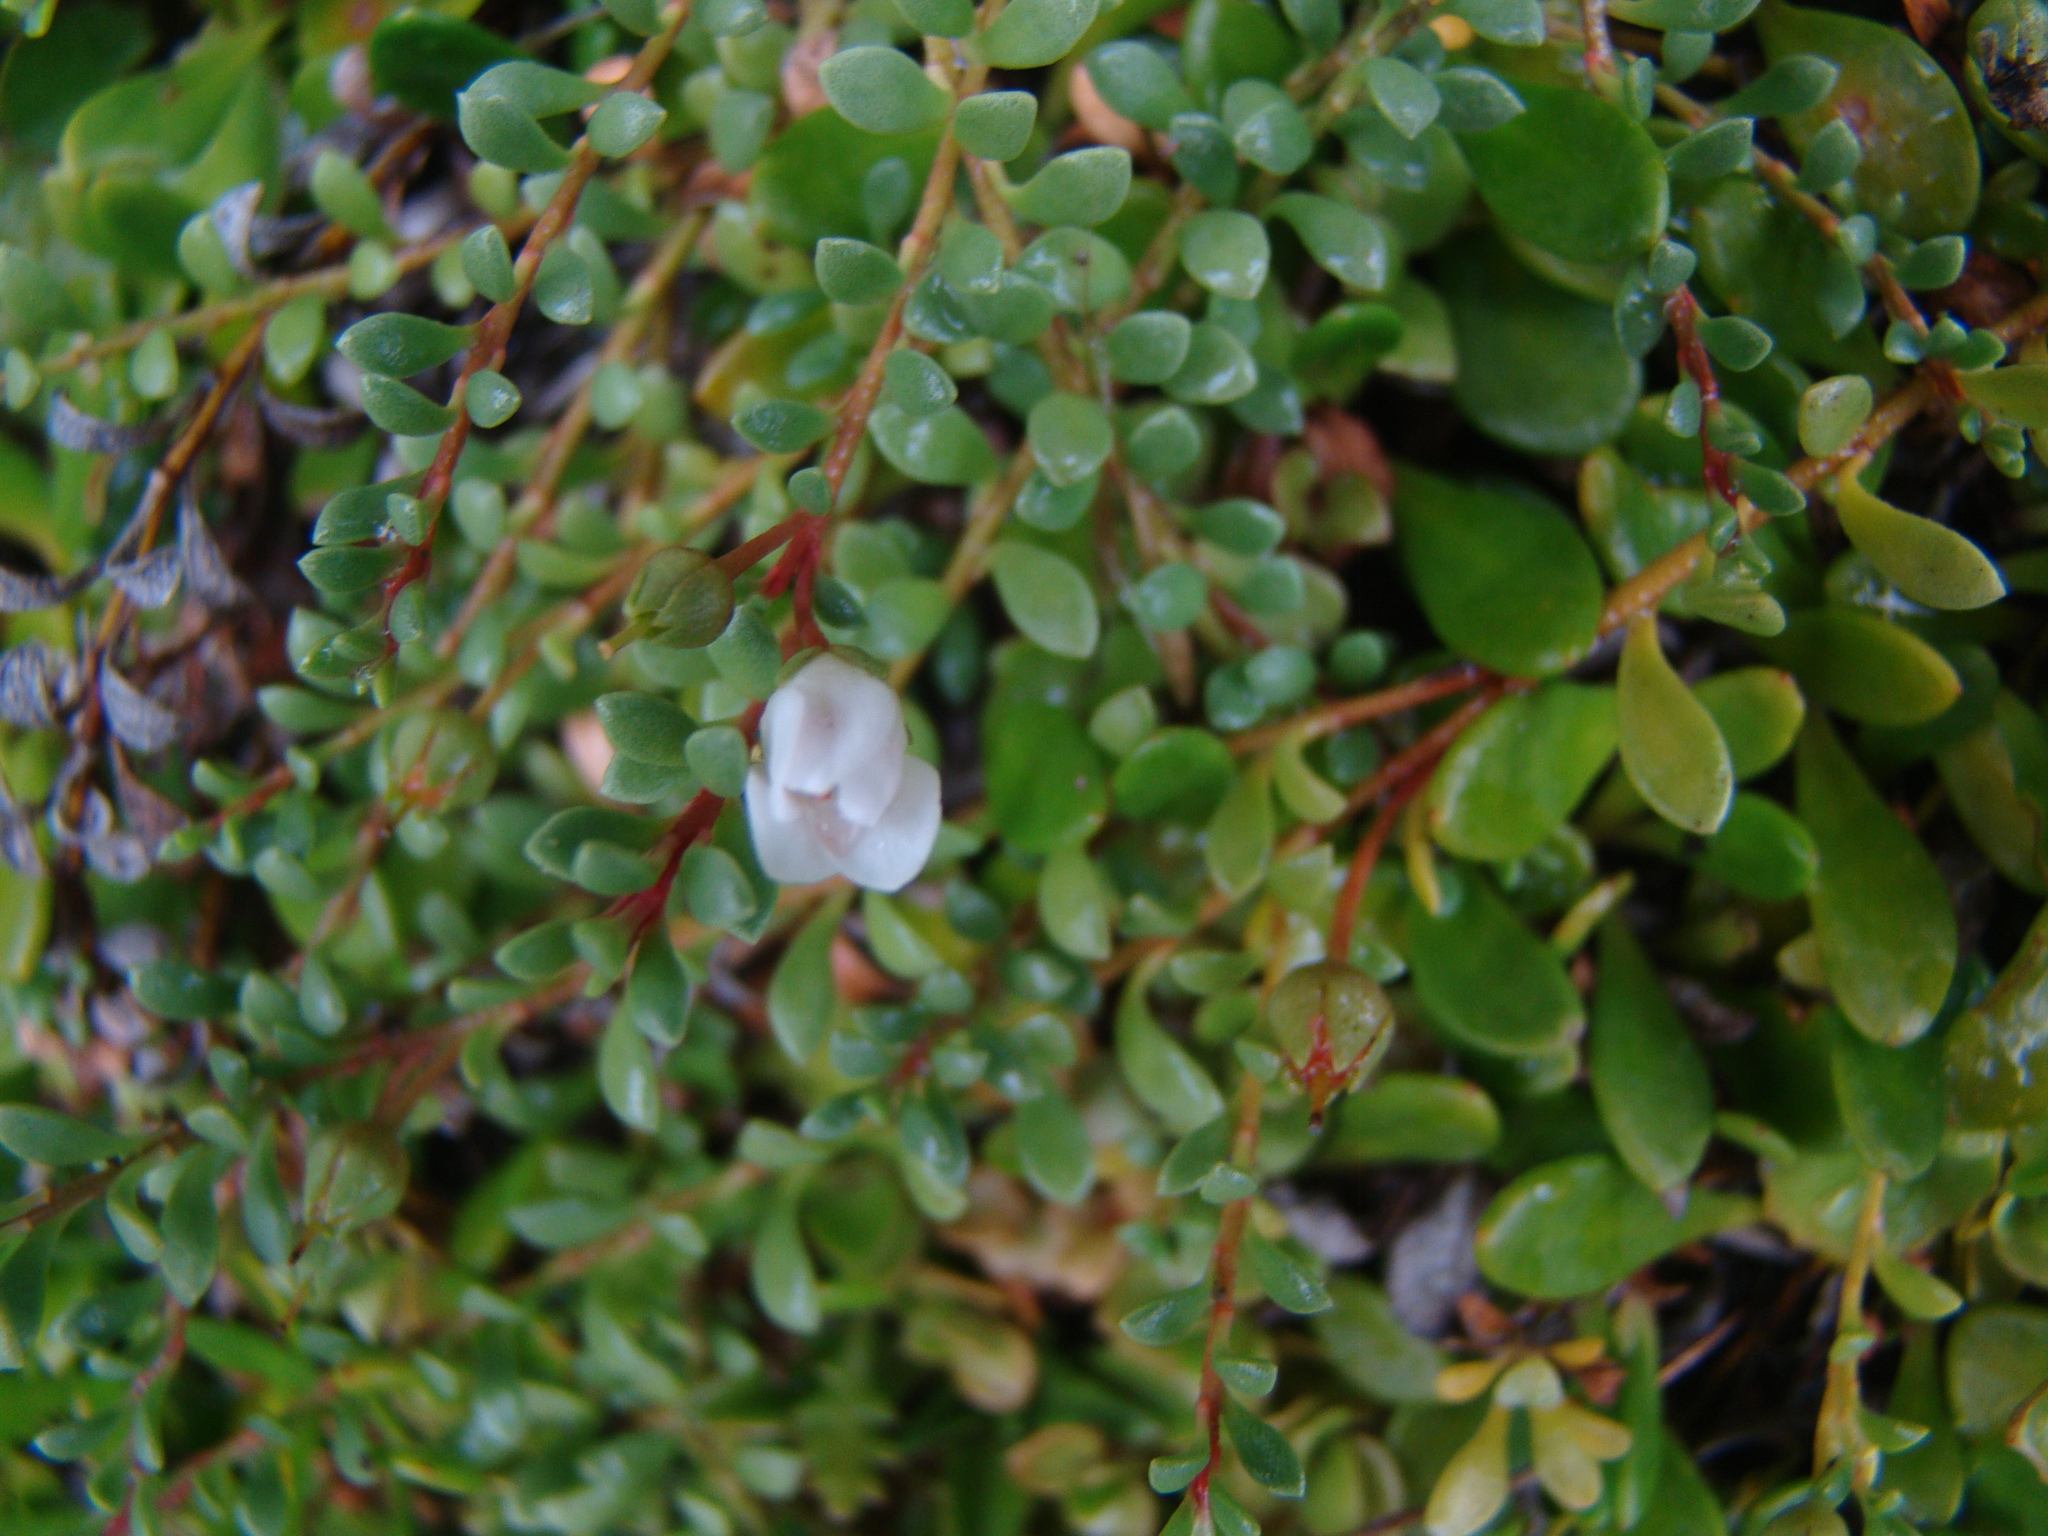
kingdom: Plantae
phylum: Tracheophyta
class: Magnoliopsida
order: Ericales
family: Primulaceae
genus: Samolus
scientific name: Samolus repens
